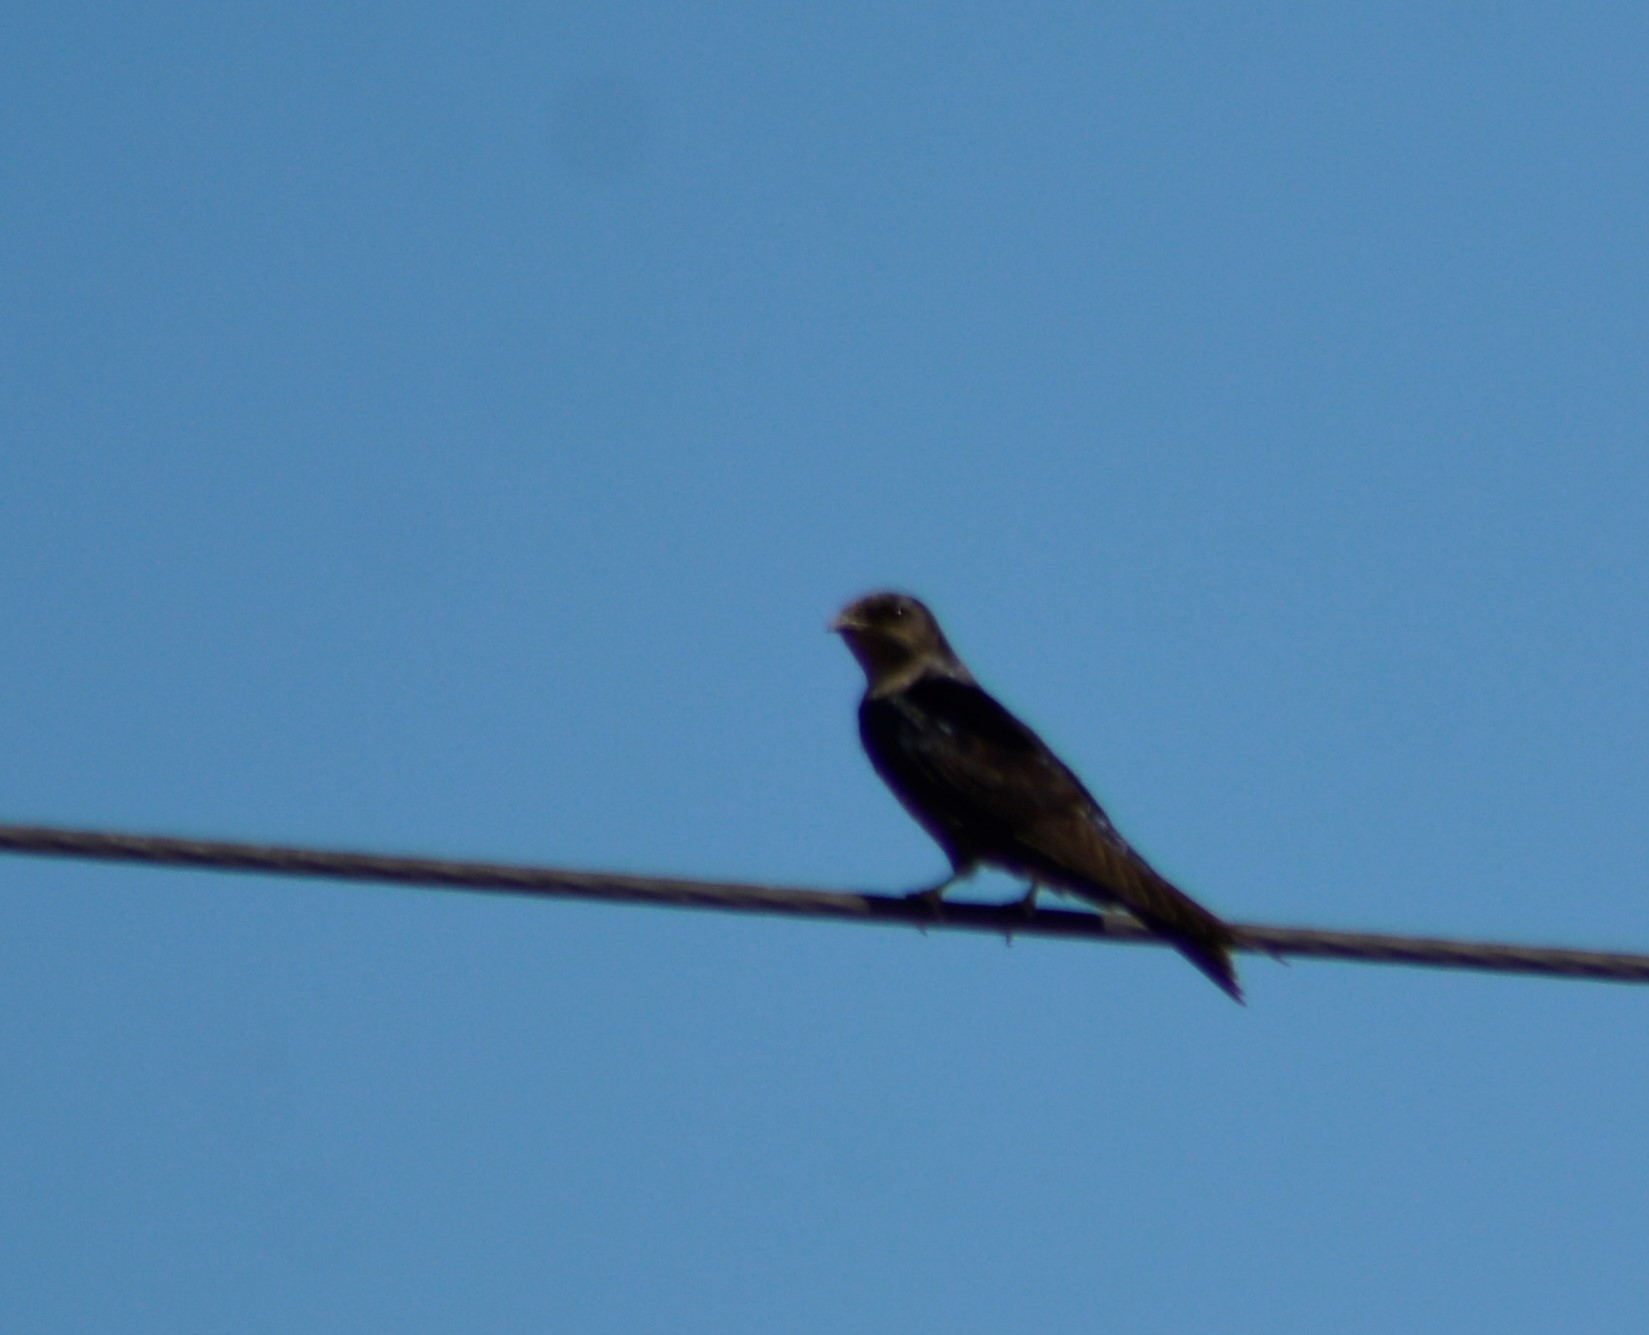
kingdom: Animalia
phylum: Chordata
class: Aves
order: Passeriformes
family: Hirundinidae
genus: Progne
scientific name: Progne elegans
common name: Southern martin
